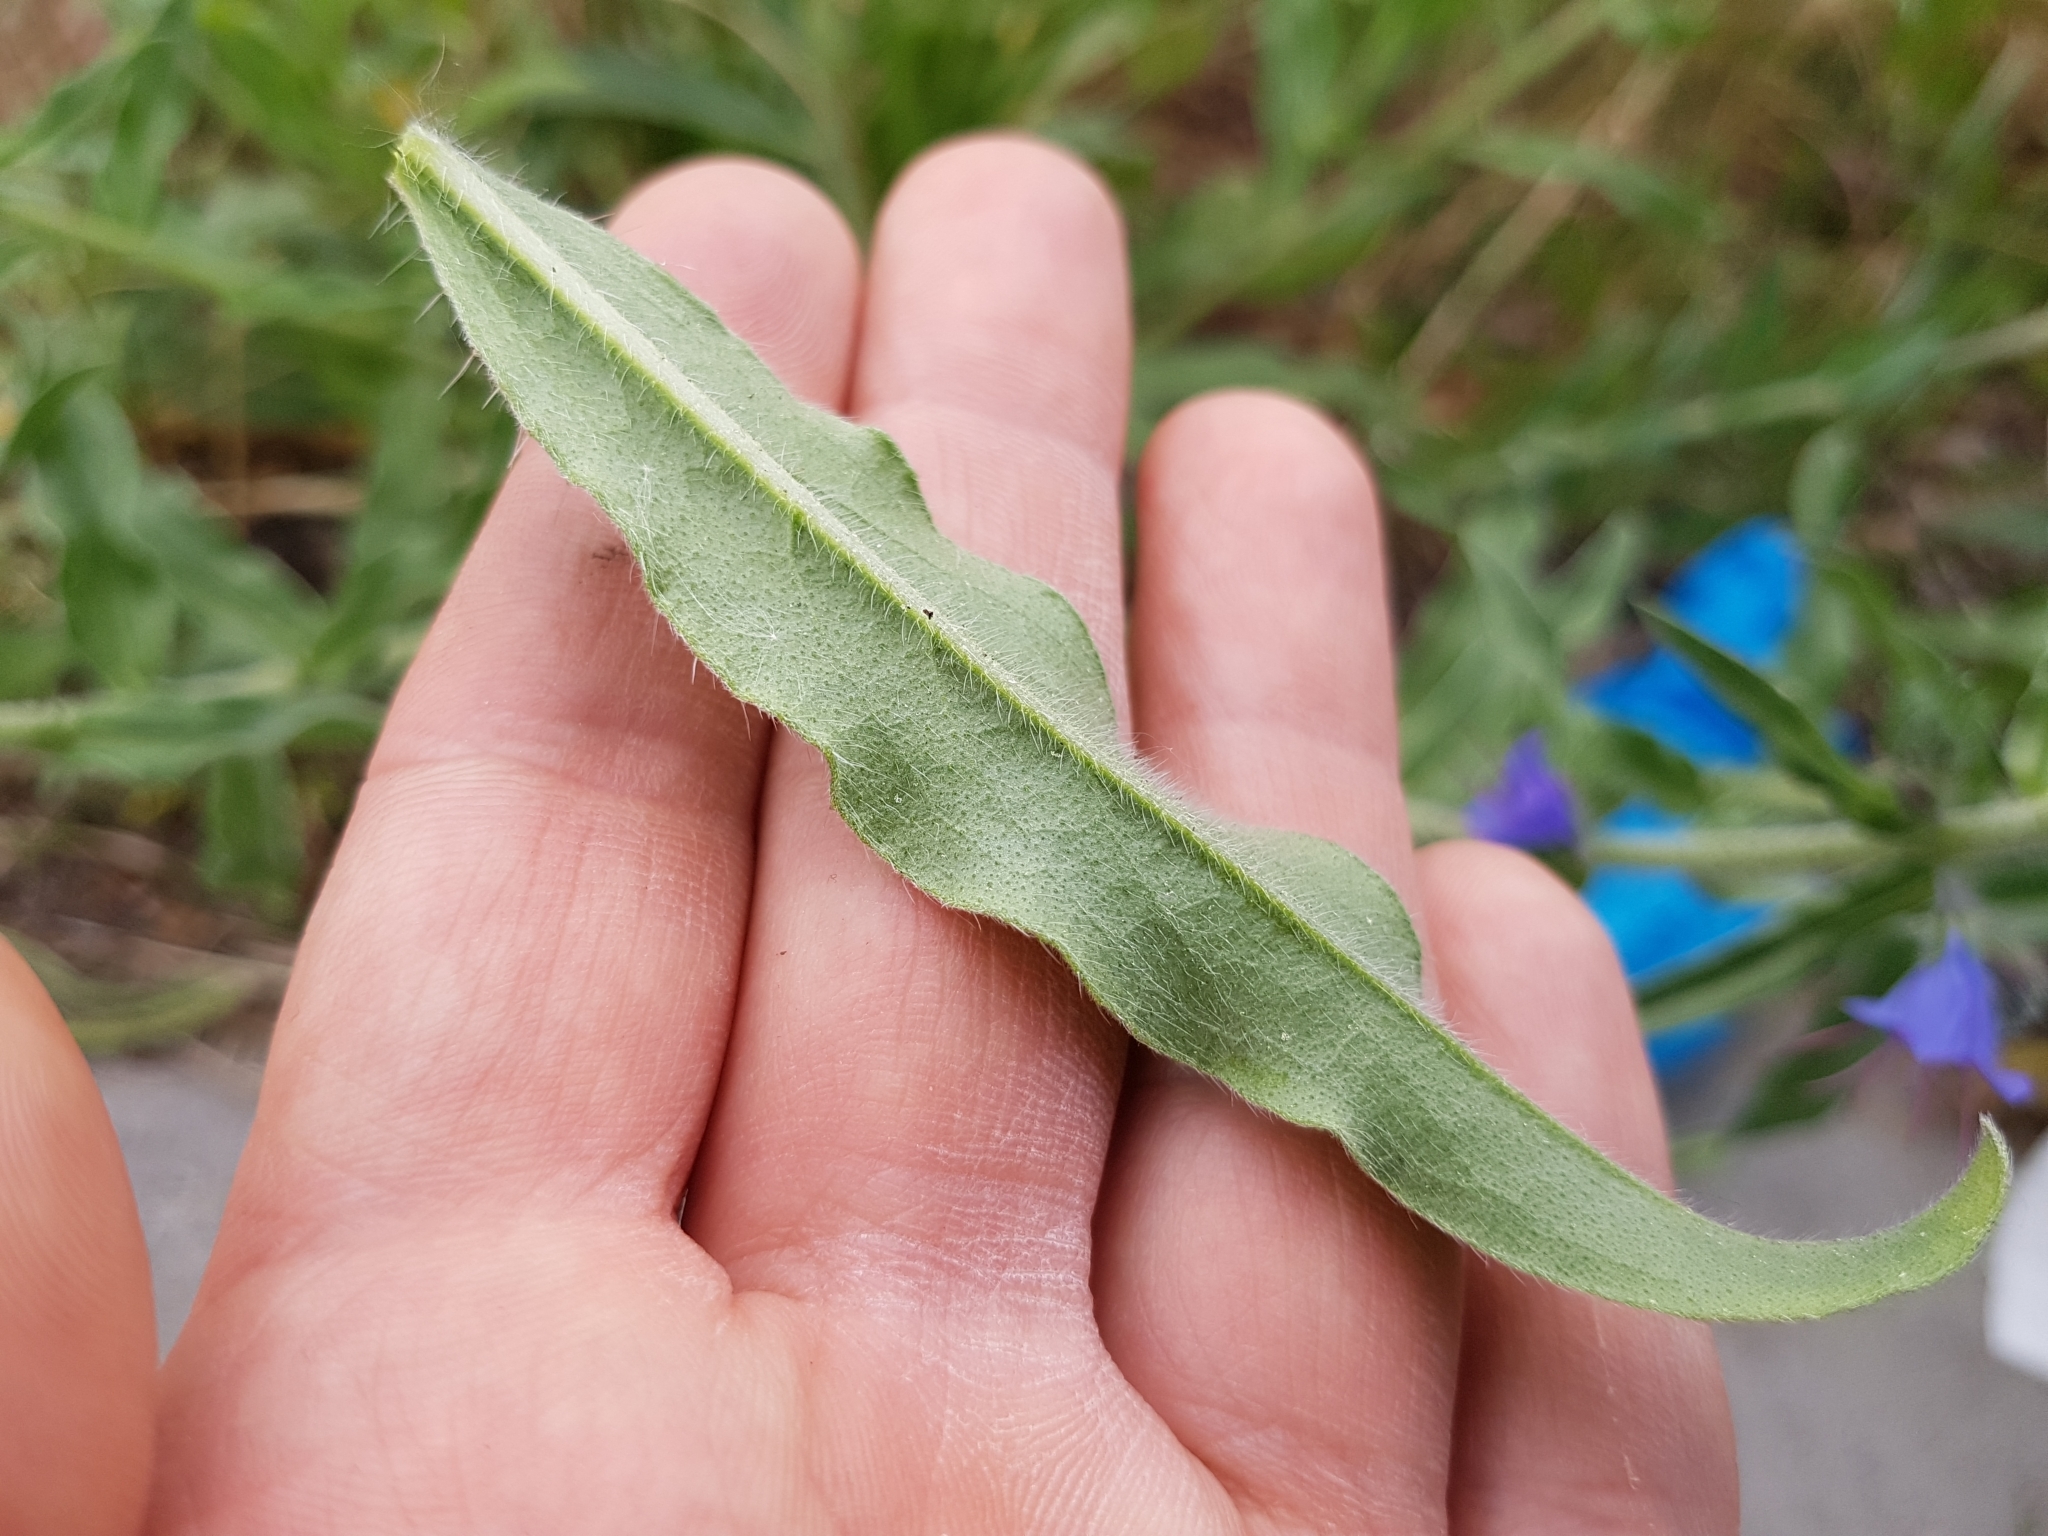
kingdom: Plantae
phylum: Tracheophyta
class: Magnoliopsida
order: Boraginales
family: Boraginaceae
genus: Echium
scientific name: Echium vulgare
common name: Common viper's bugloss
